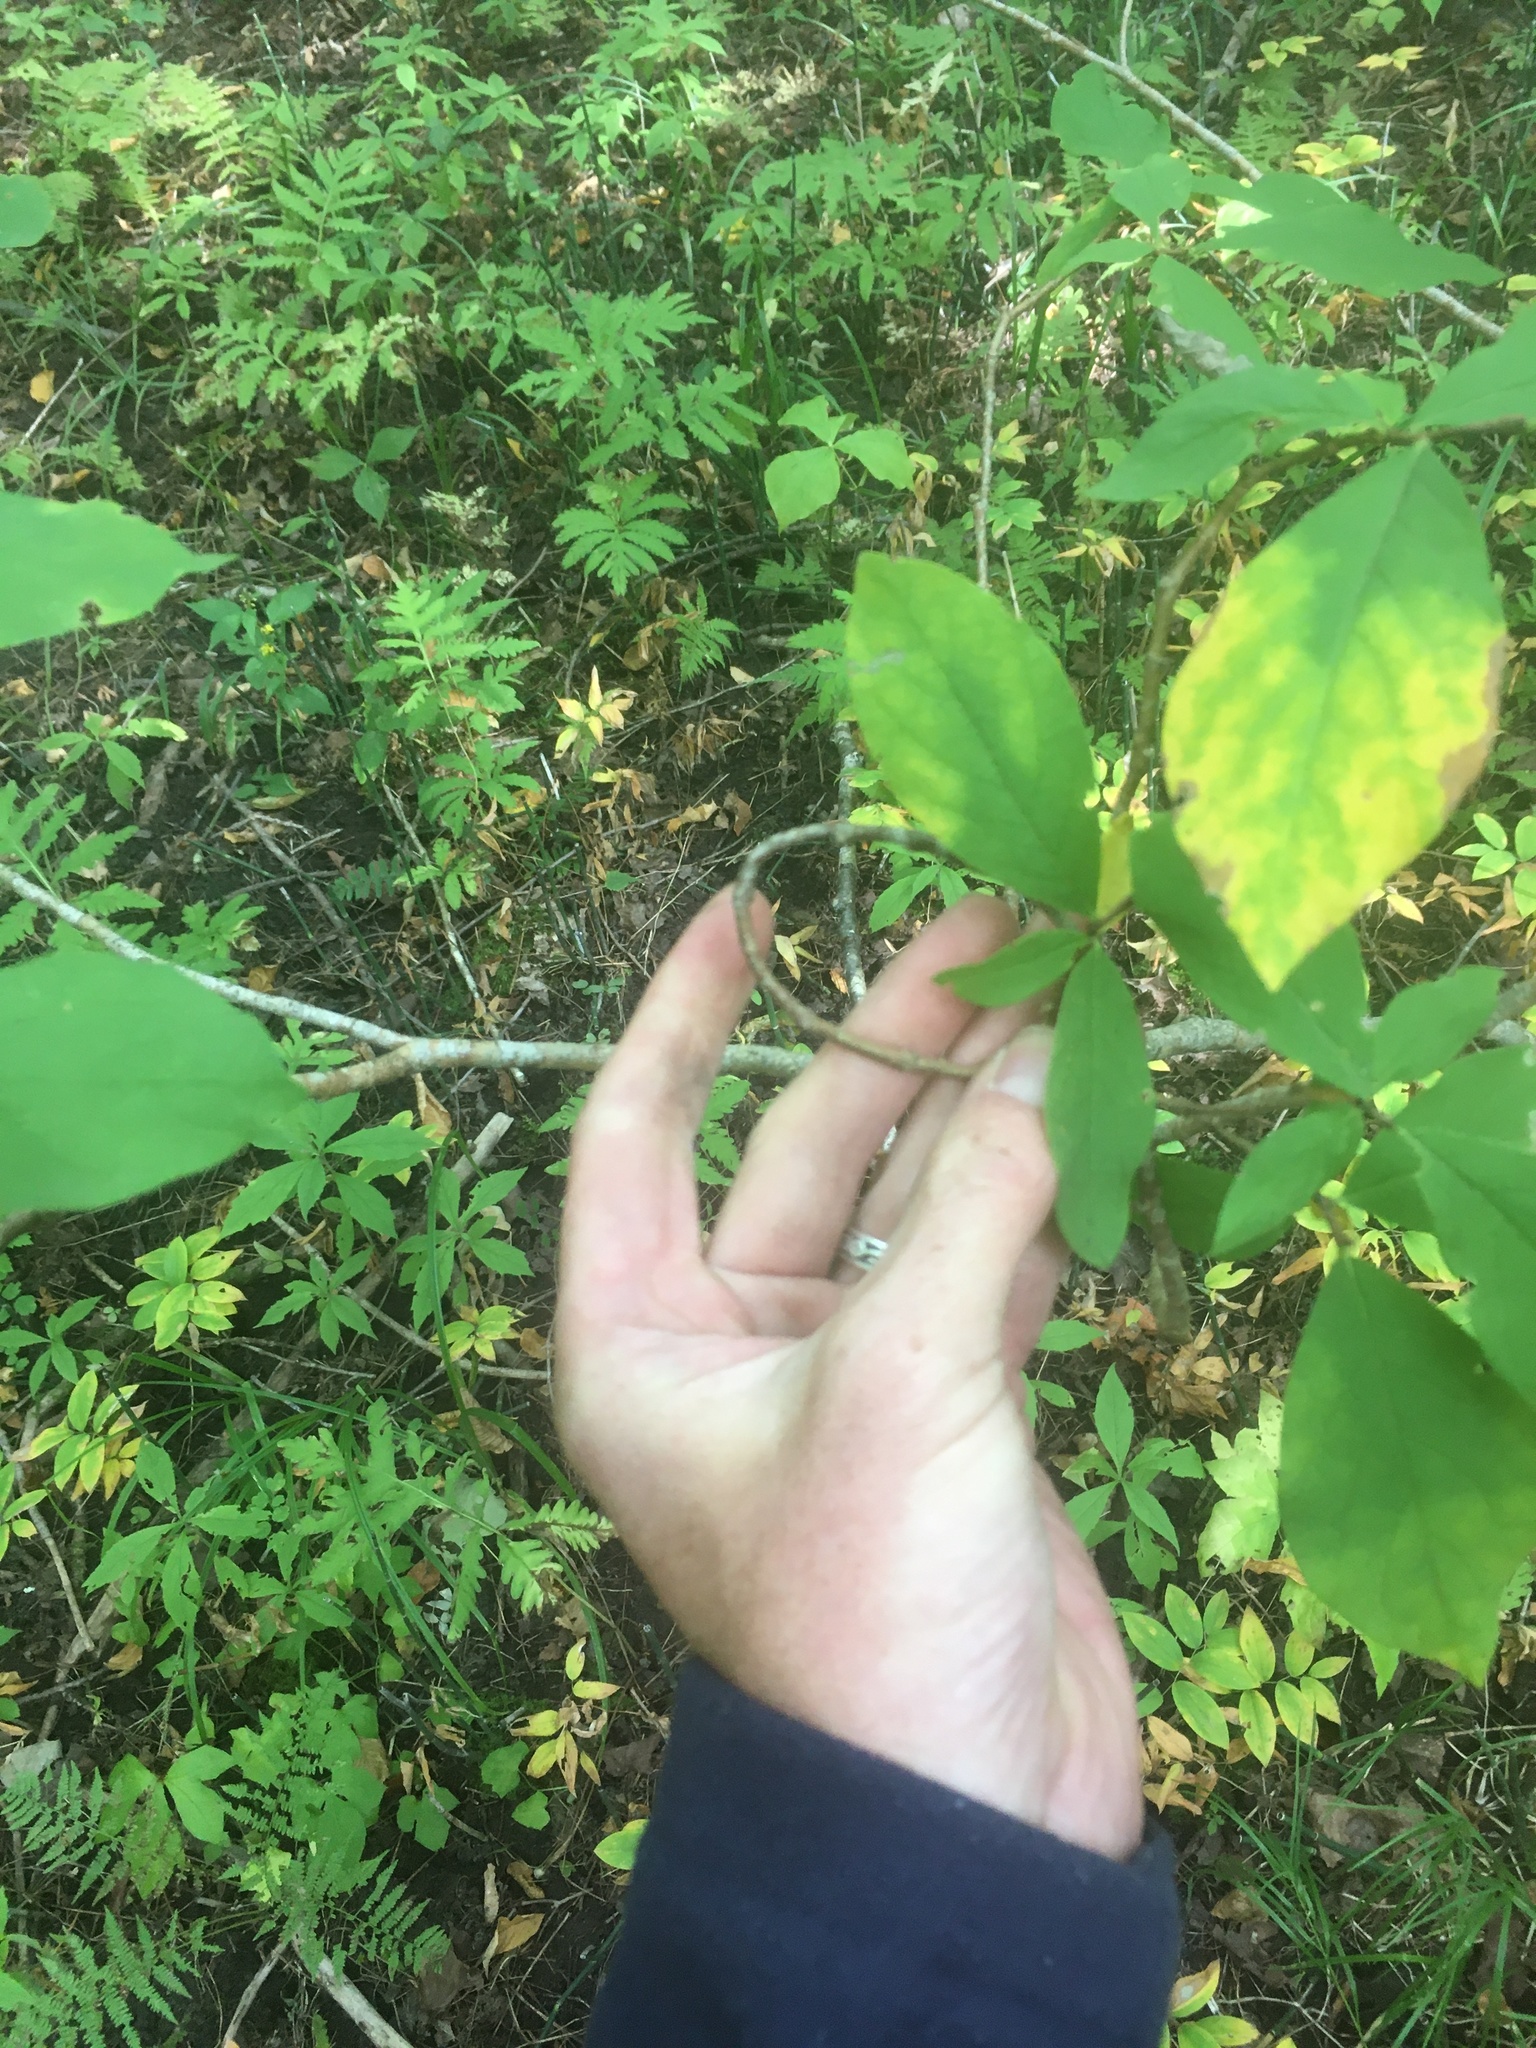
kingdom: Plantae
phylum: Tracheophyta
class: Magnoliopsida
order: Malvales
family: Thymelaeaceae
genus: Dirca
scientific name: Dirca palustris
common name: Leatherwood
